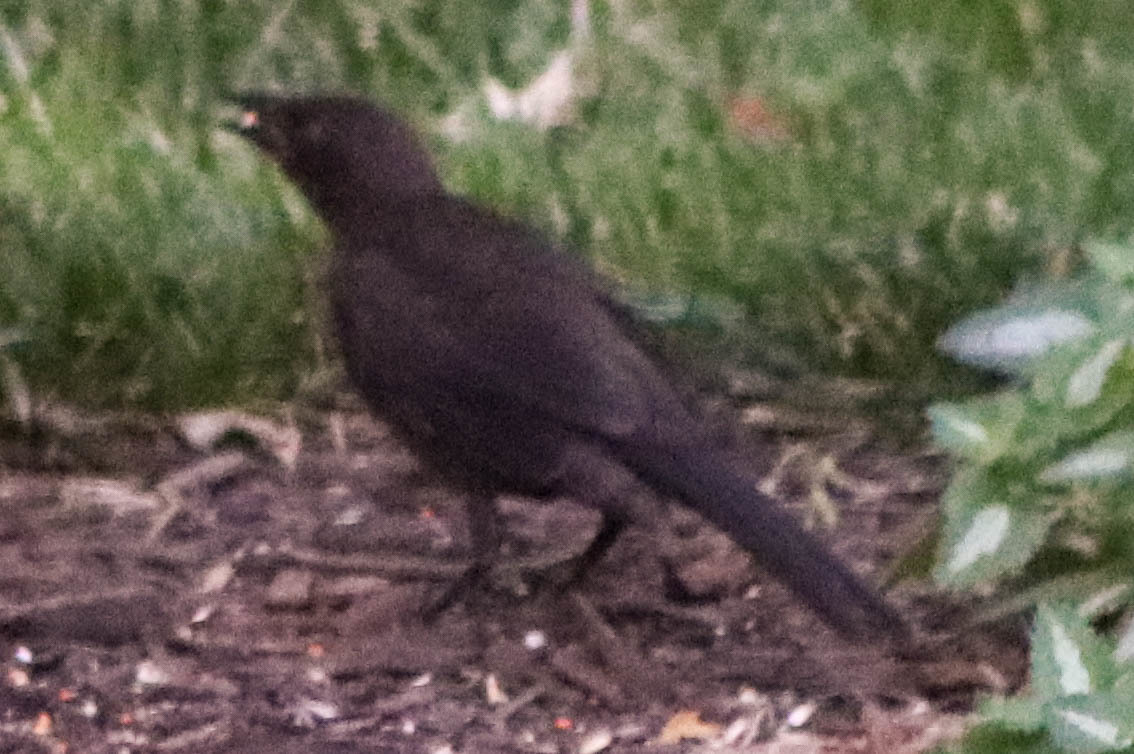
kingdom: Animalia
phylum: Chordata
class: Aves
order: Passeriformes
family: Icteridae
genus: Quiscalus
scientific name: Quiscalus quiscula
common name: Common grackle
